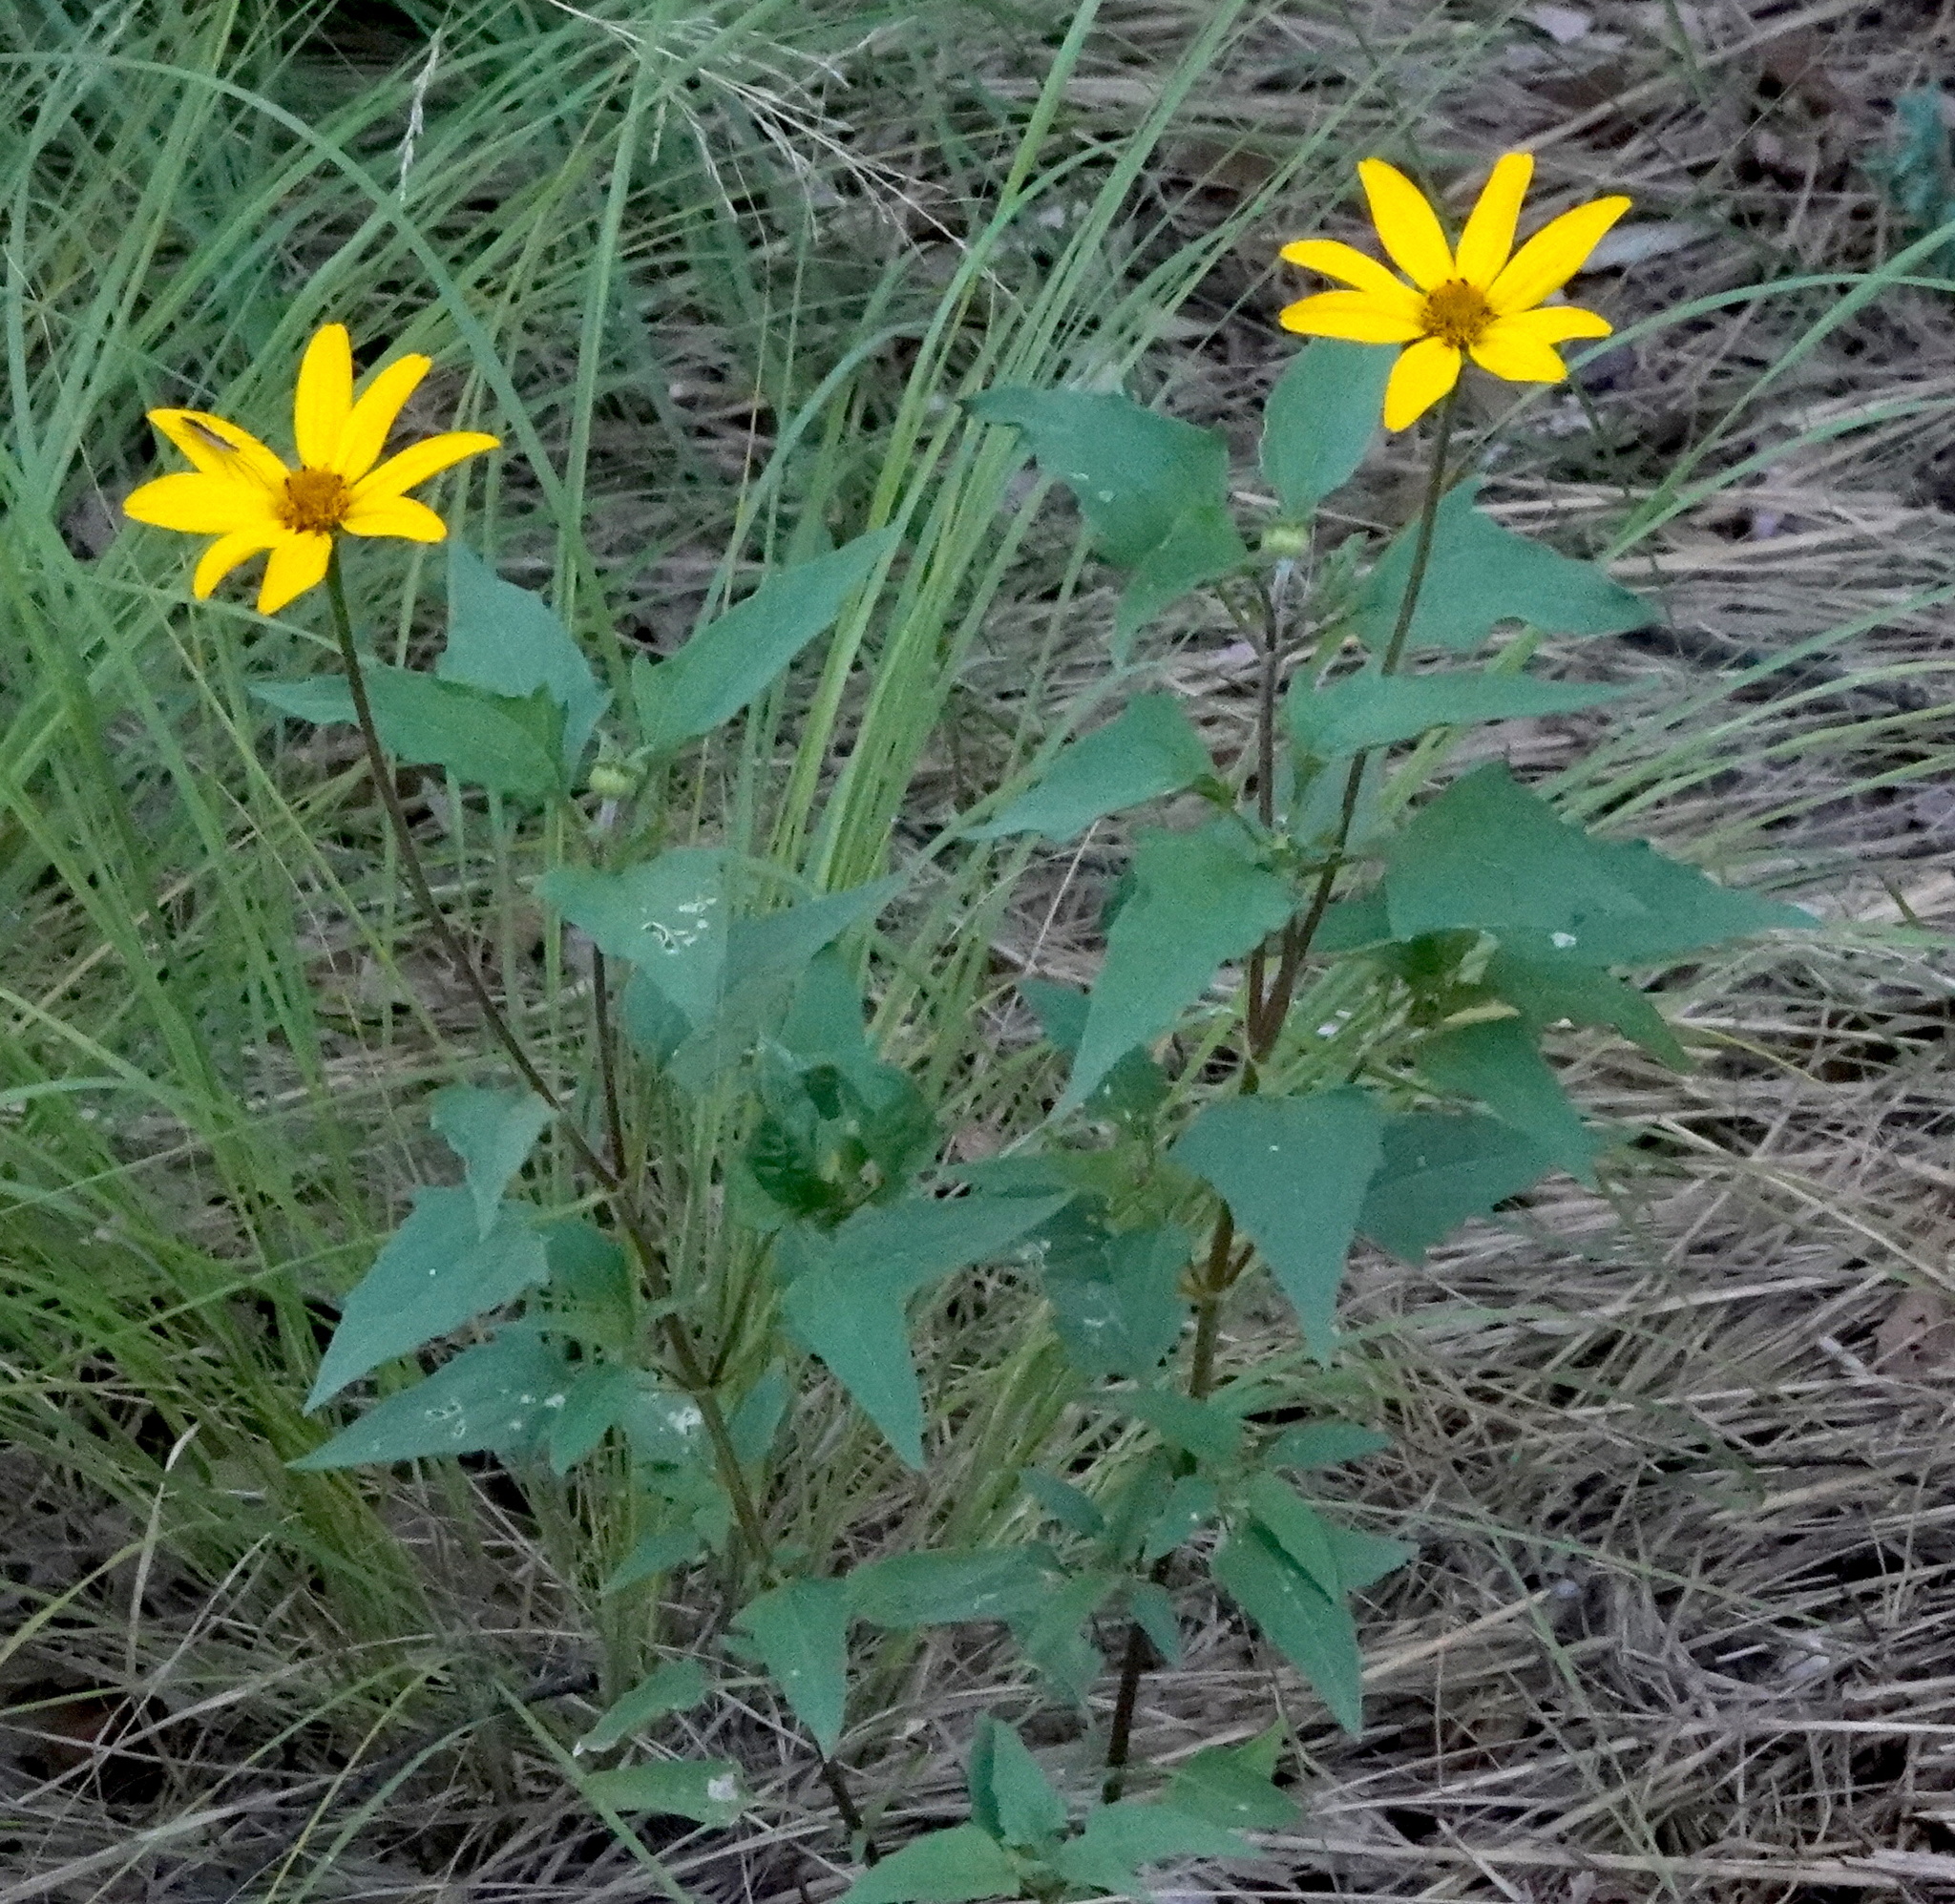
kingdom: Plantae
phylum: Tracheophyta
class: Magnoliopsida
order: Asterales
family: Asteraceae
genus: Heliopsis
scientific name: Heliopsis parvifolia
